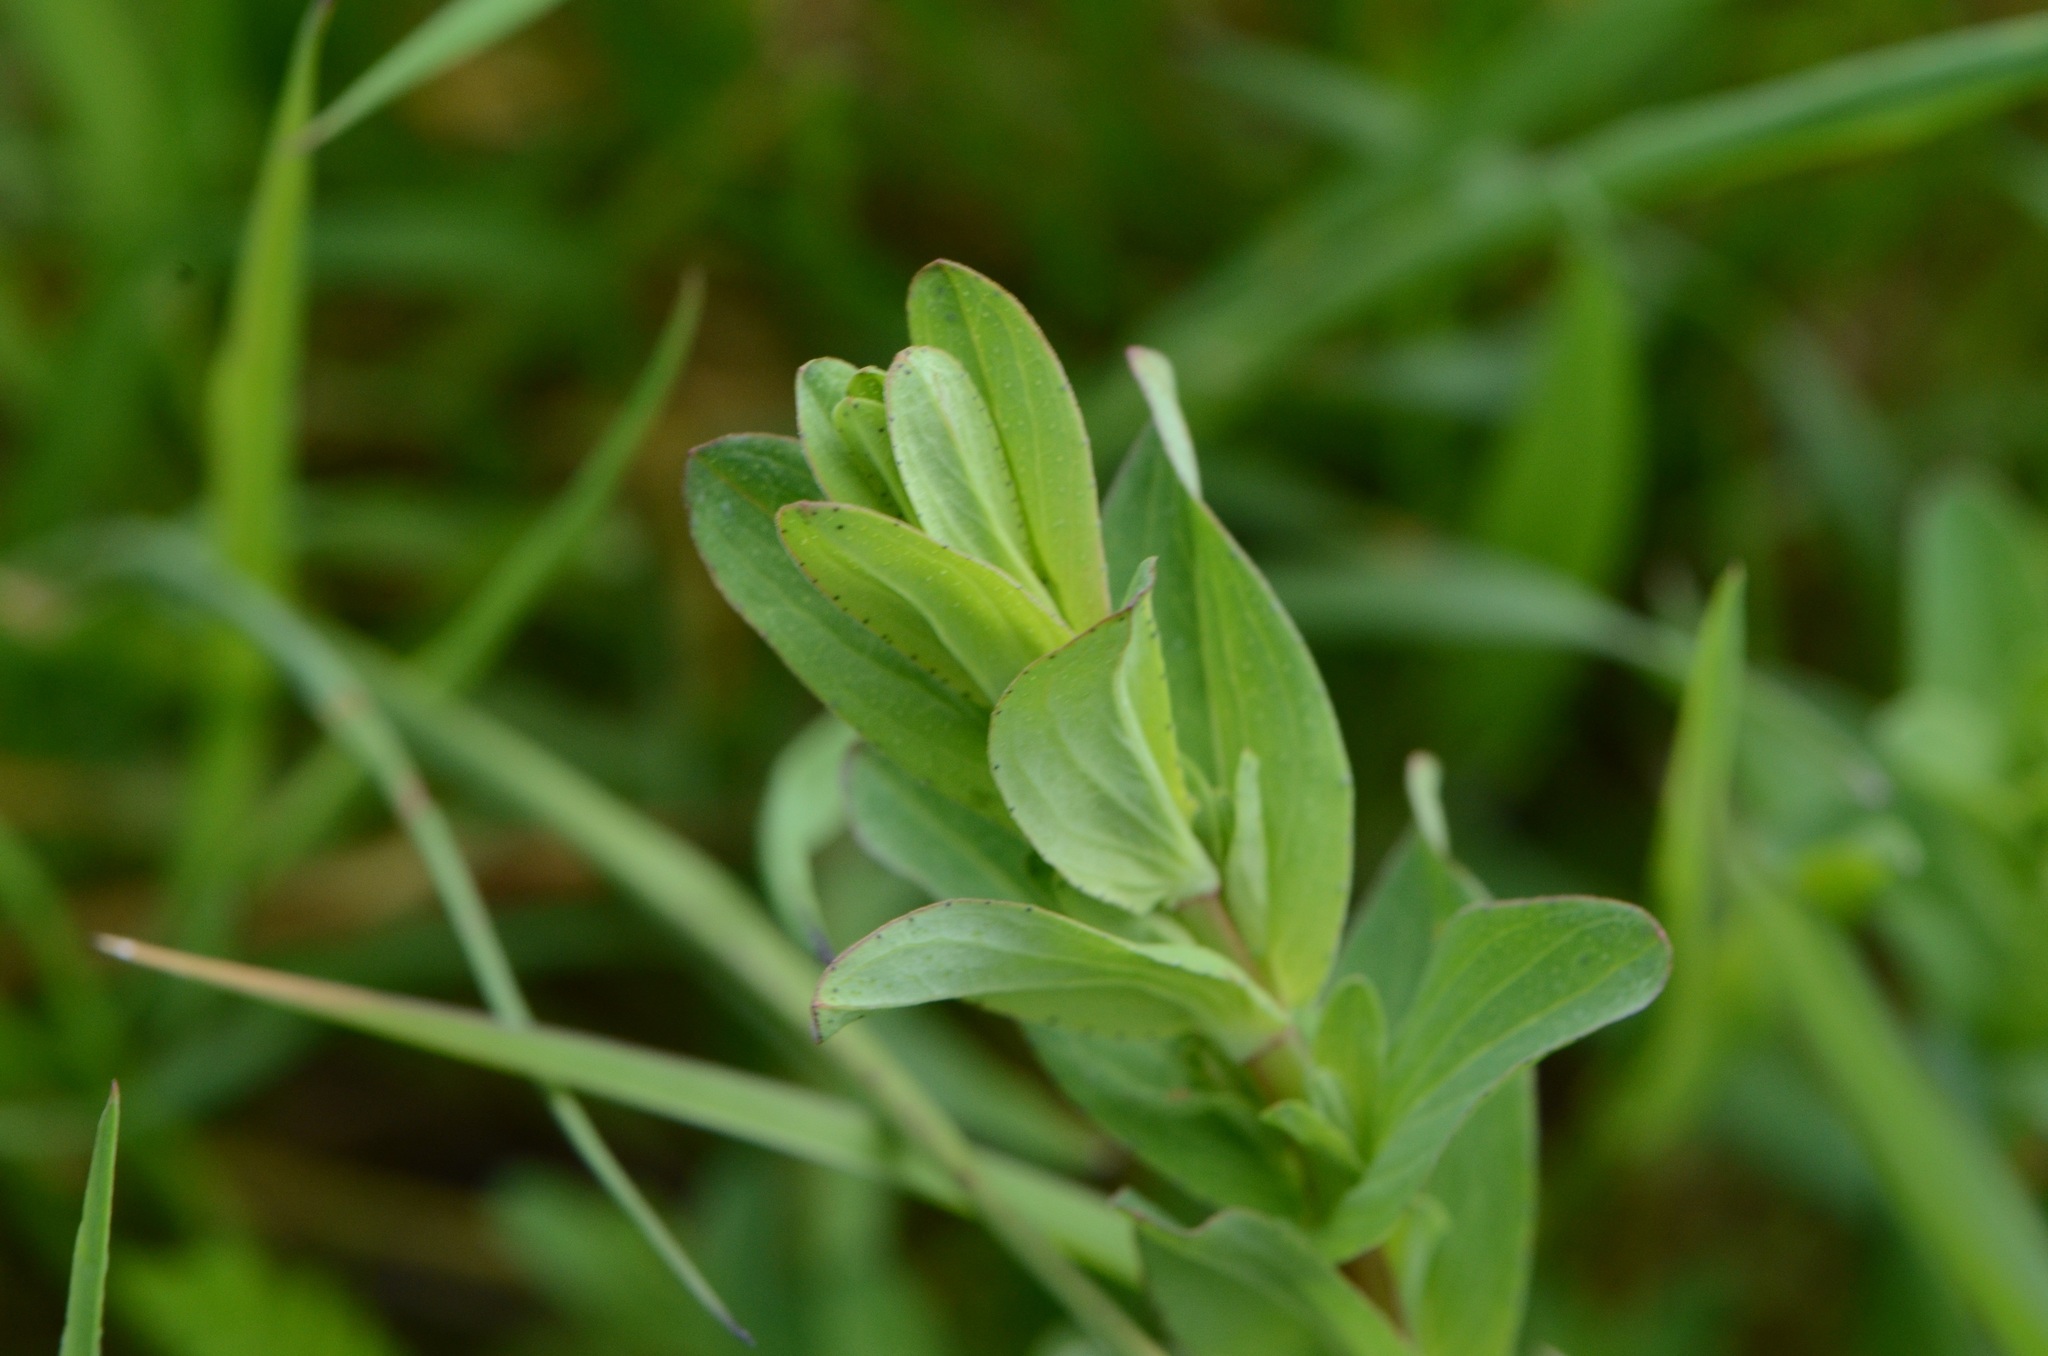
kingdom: Plantae
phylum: Tracheophyta
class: Magnoliopsida
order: Malpighiales
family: Hypericaceae
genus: Hypericum
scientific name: Hypericum perforatum
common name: Common st. johnswort
